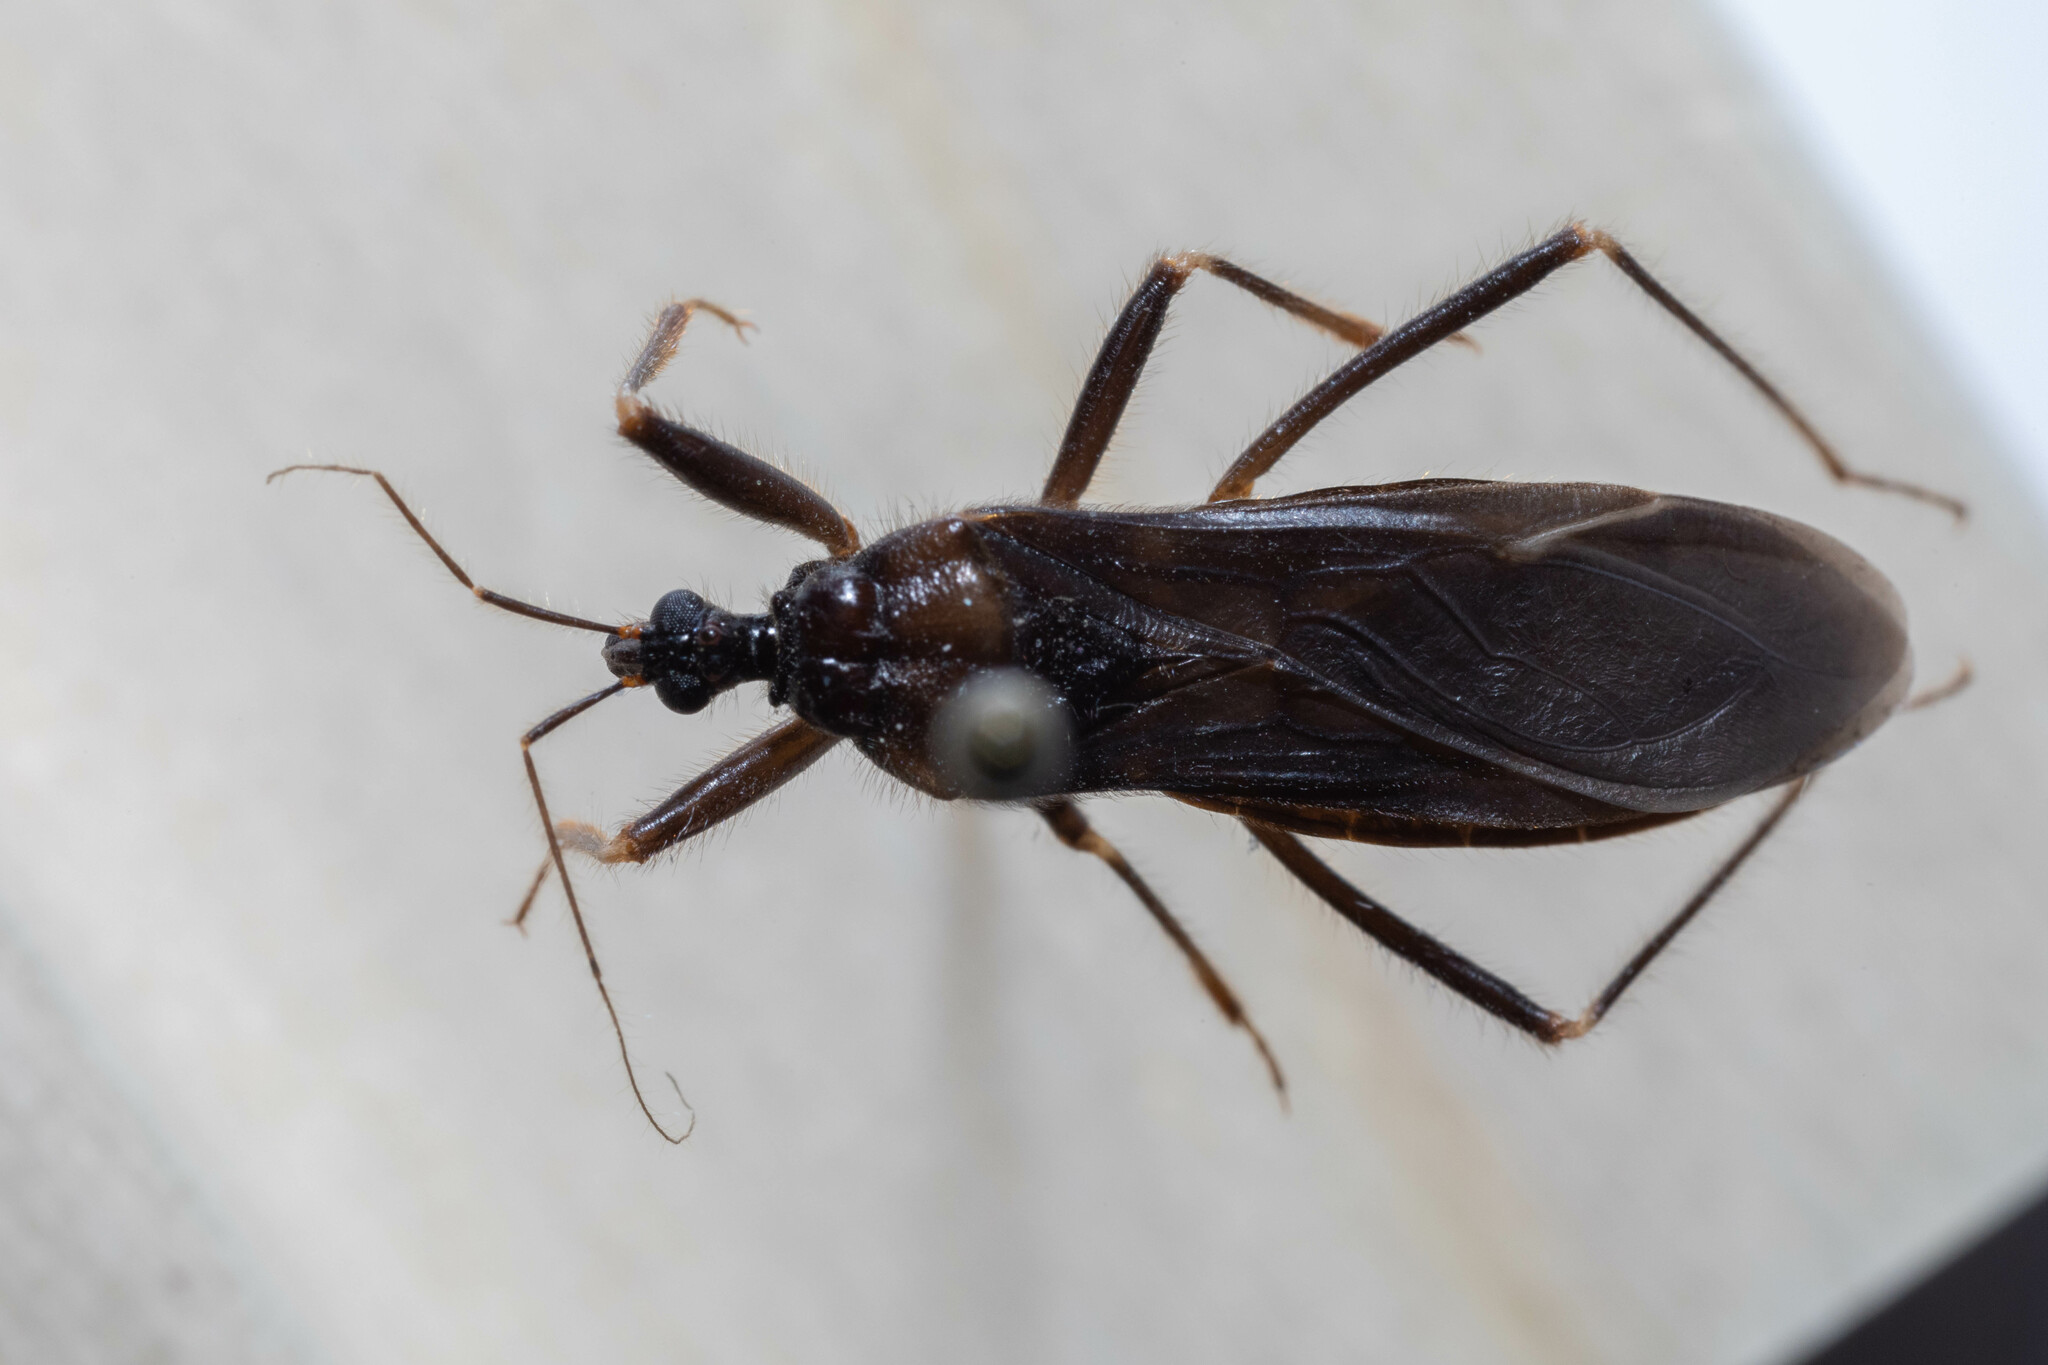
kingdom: Animalia
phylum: Arthropoda
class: Insecta
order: Hemiptera
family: Reduviidae
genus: Reduvius
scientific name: Reduvius personatus
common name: Masked hunter
